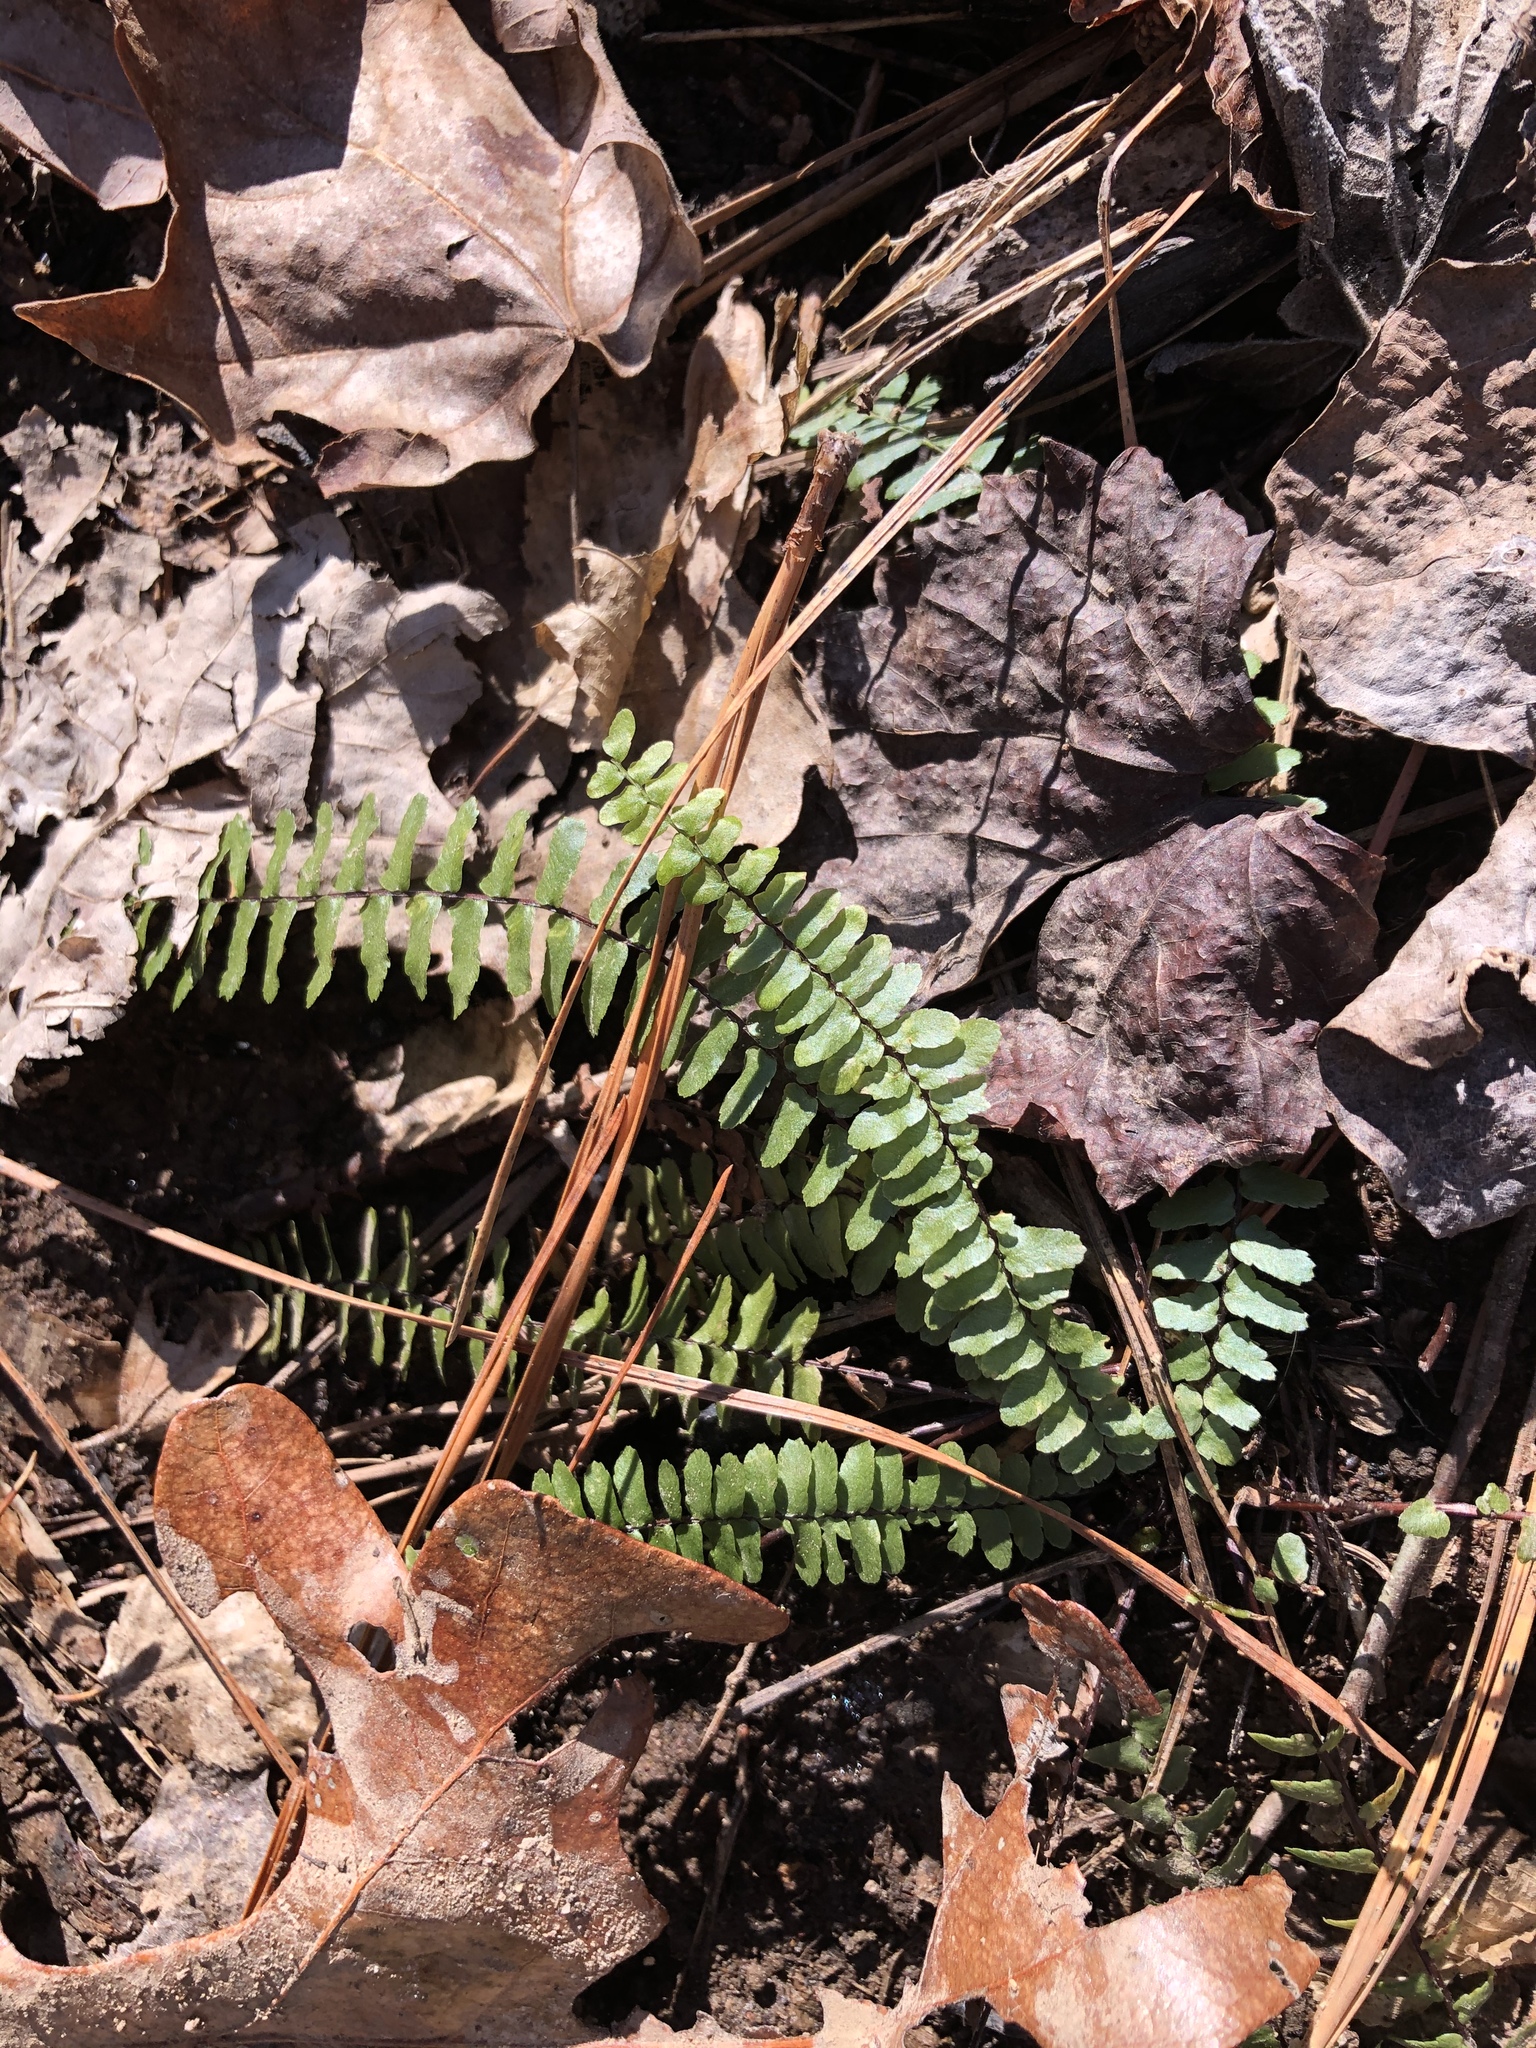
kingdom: Plantae
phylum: Tracheophyta
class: Polypodiopsida
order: Polypodiales
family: Aspleniaceae
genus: Asplenium
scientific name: Asplenium platyneuron
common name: Ebony spleenwort
